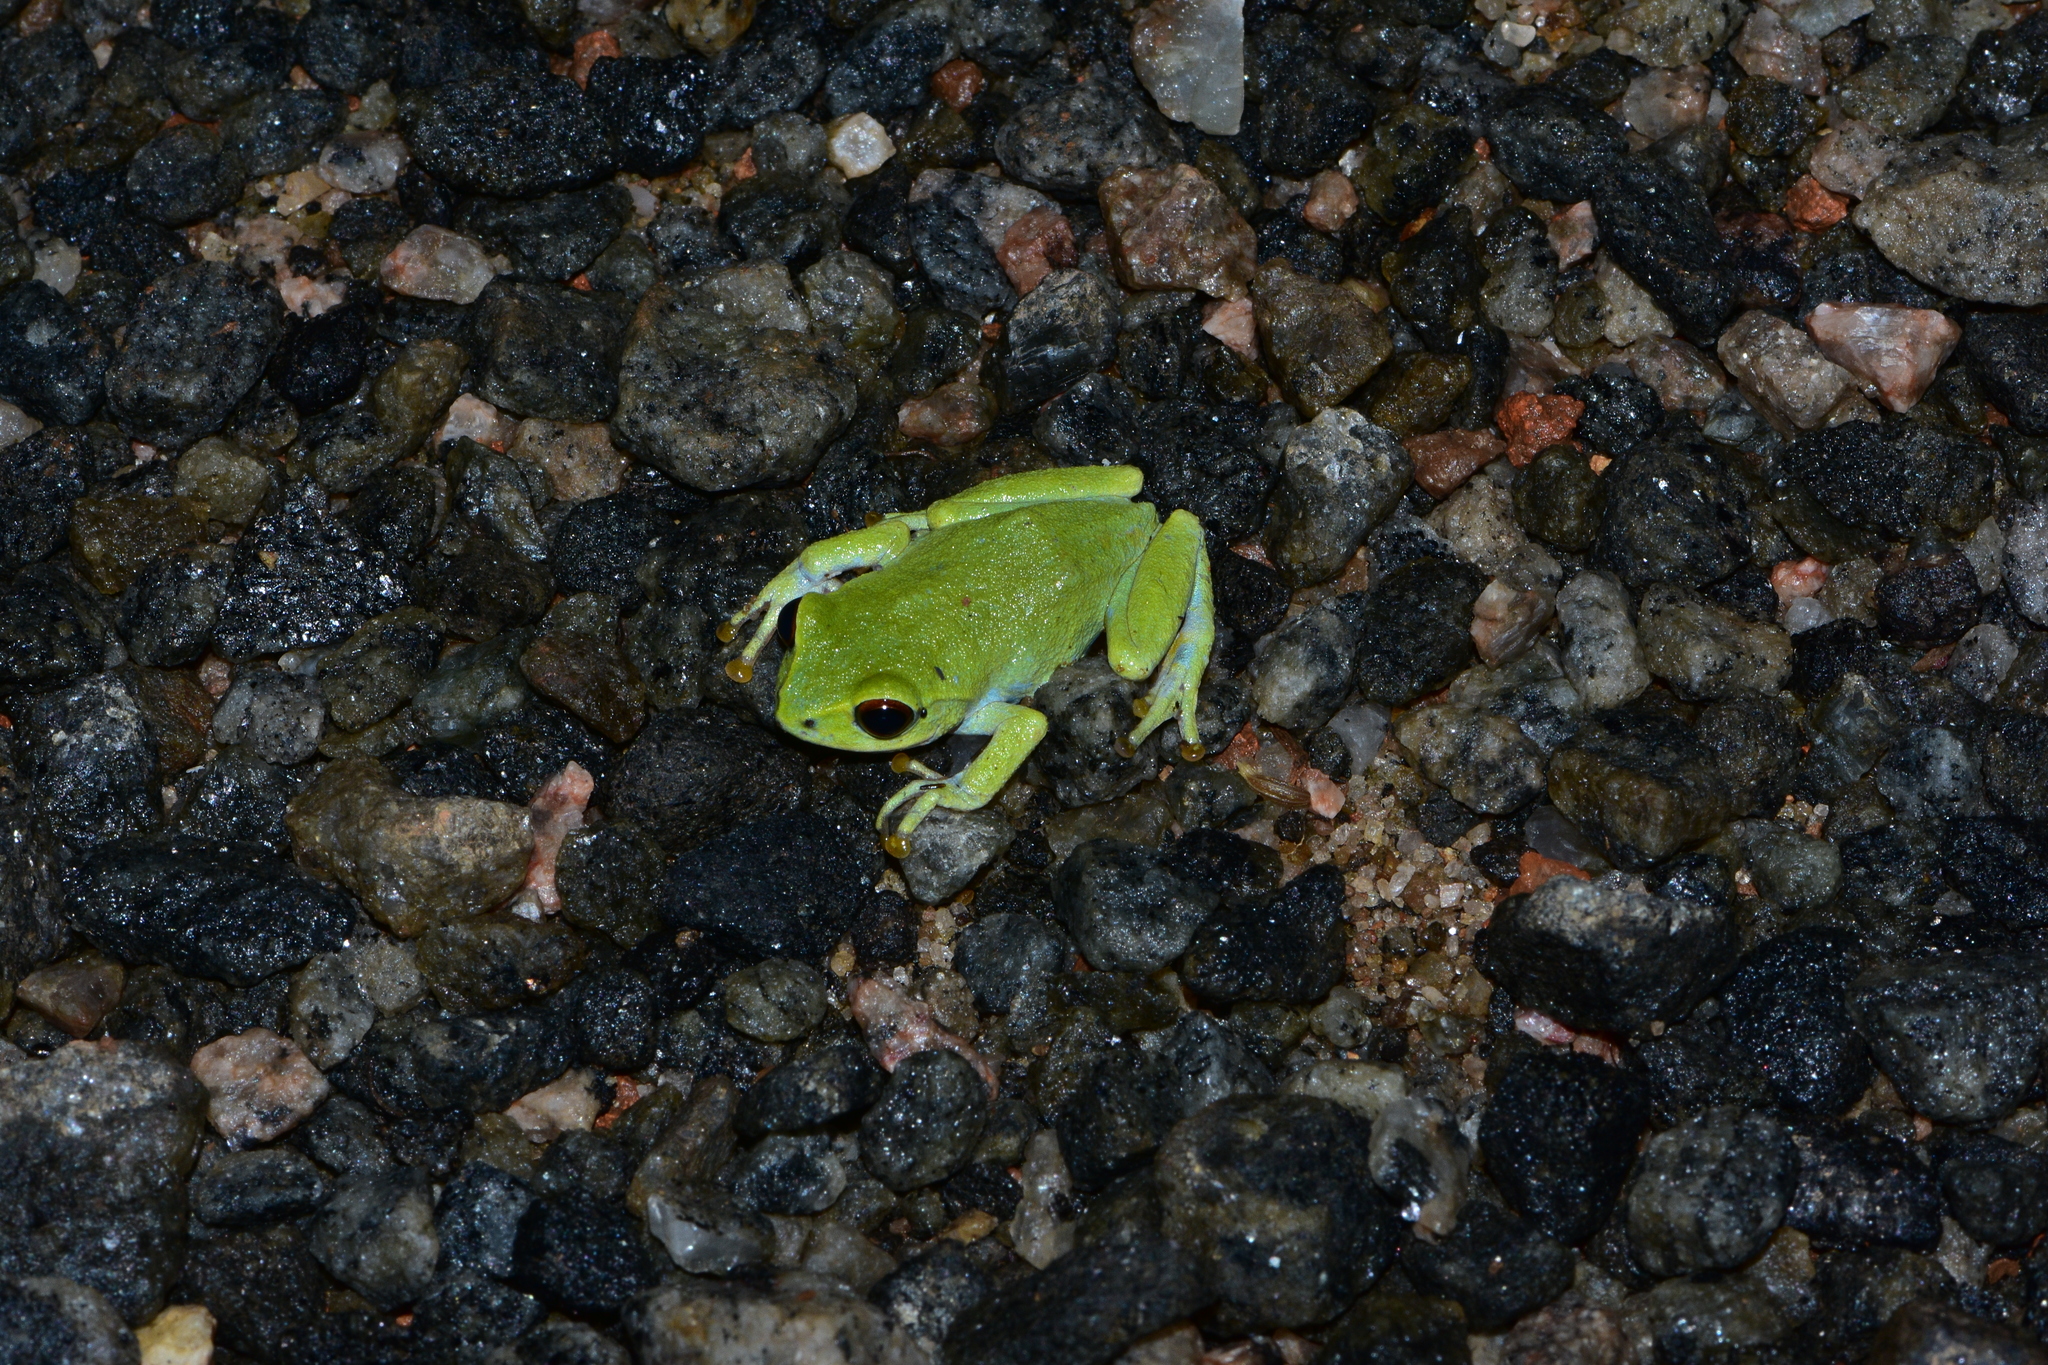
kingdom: Animalia
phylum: Chordata
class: Amphibia
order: Anura
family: Rhacophoridae
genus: Raorchestes
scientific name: Raorchestes beddomii
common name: Beddome's bush frog
